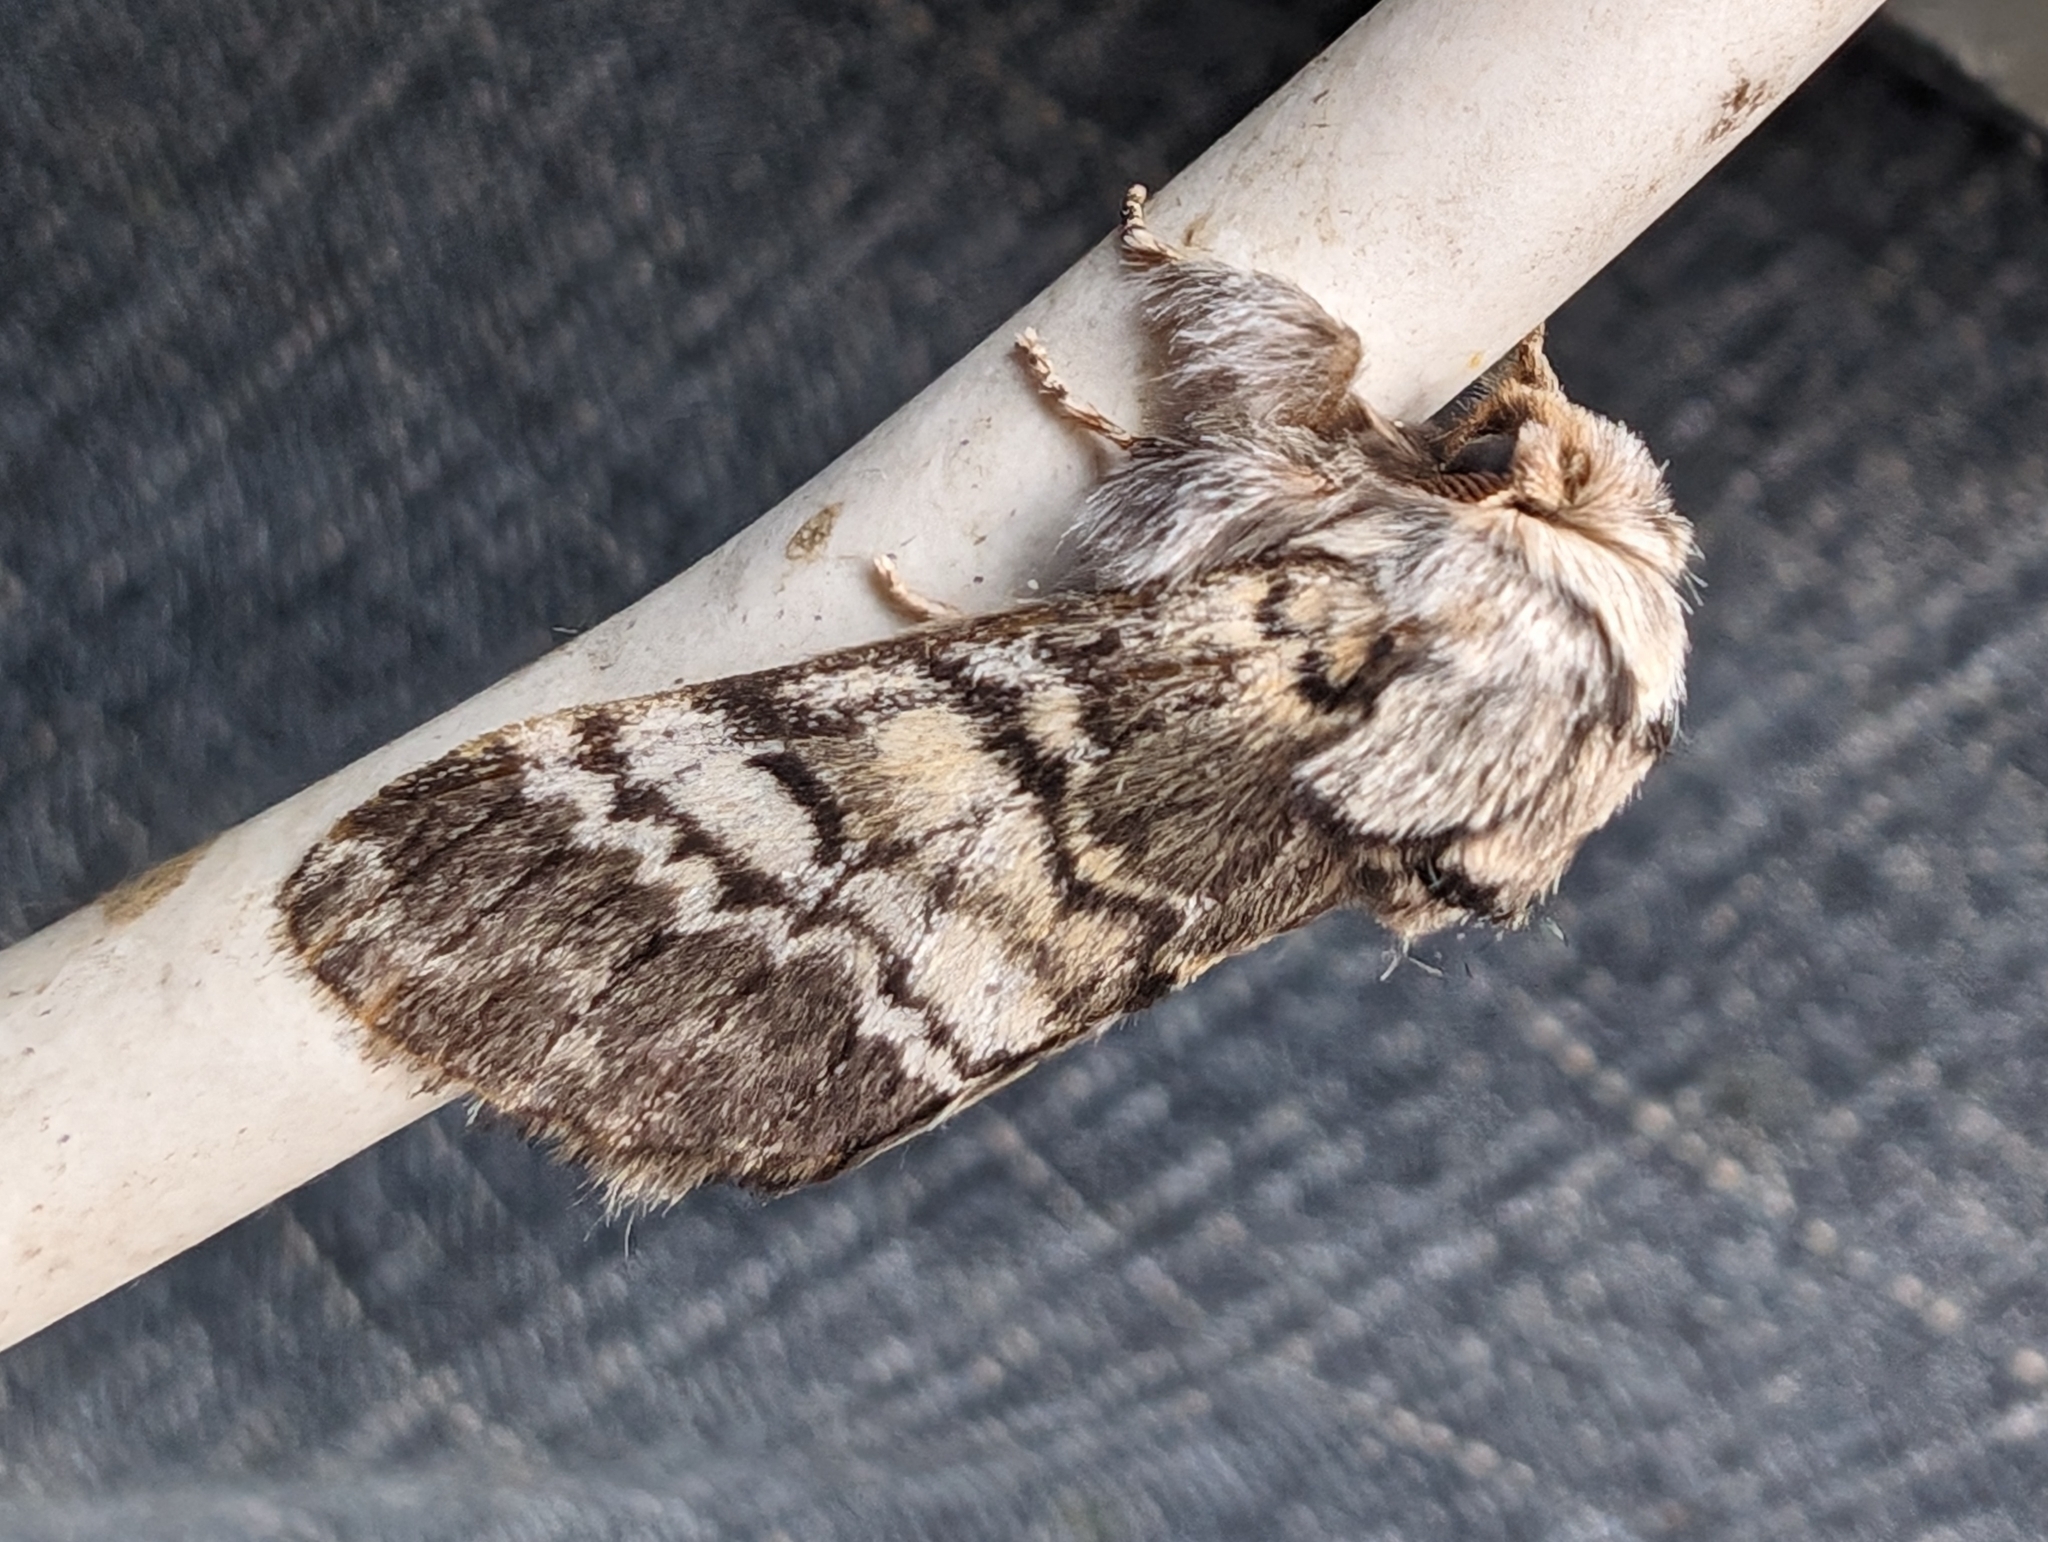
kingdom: Animalia
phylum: Arthropoda
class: Insecta
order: Lepidoptera
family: Notodontidae
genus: Drymonia
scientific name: Drymonia ruficornis
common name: Lunar marbled brown
